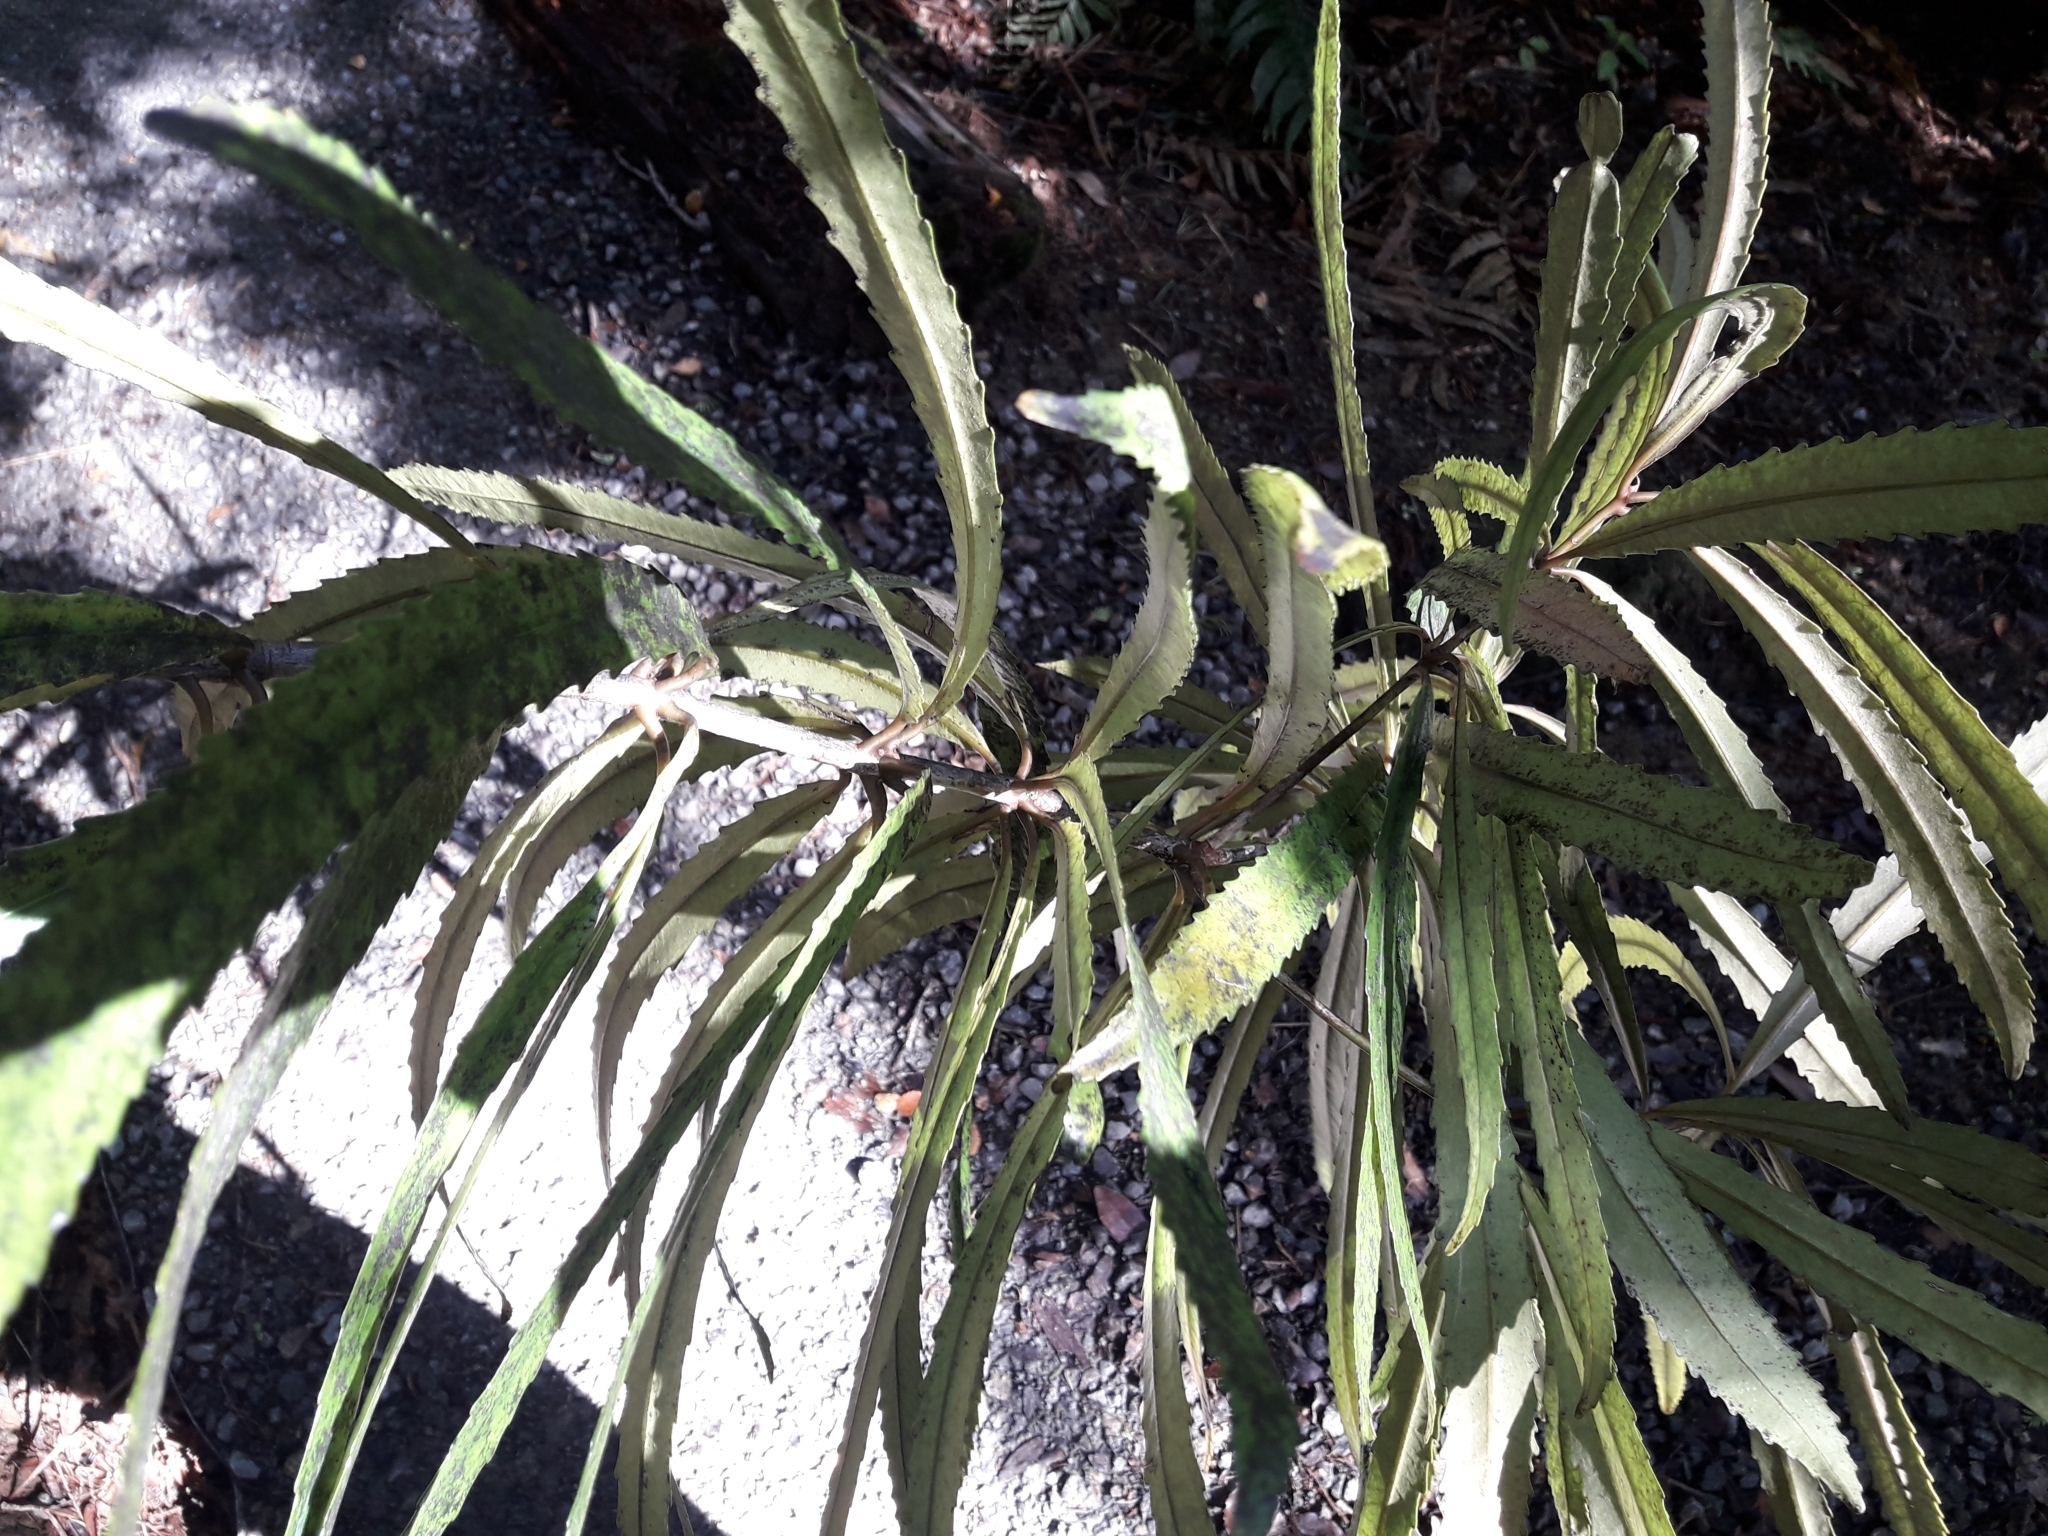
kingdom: Plantae
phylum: Tracheophyta
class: Magnoliopsida
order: Crossosomatales
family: Ixerbaceae
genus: Ixerba
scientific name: Ixerba brexioides
